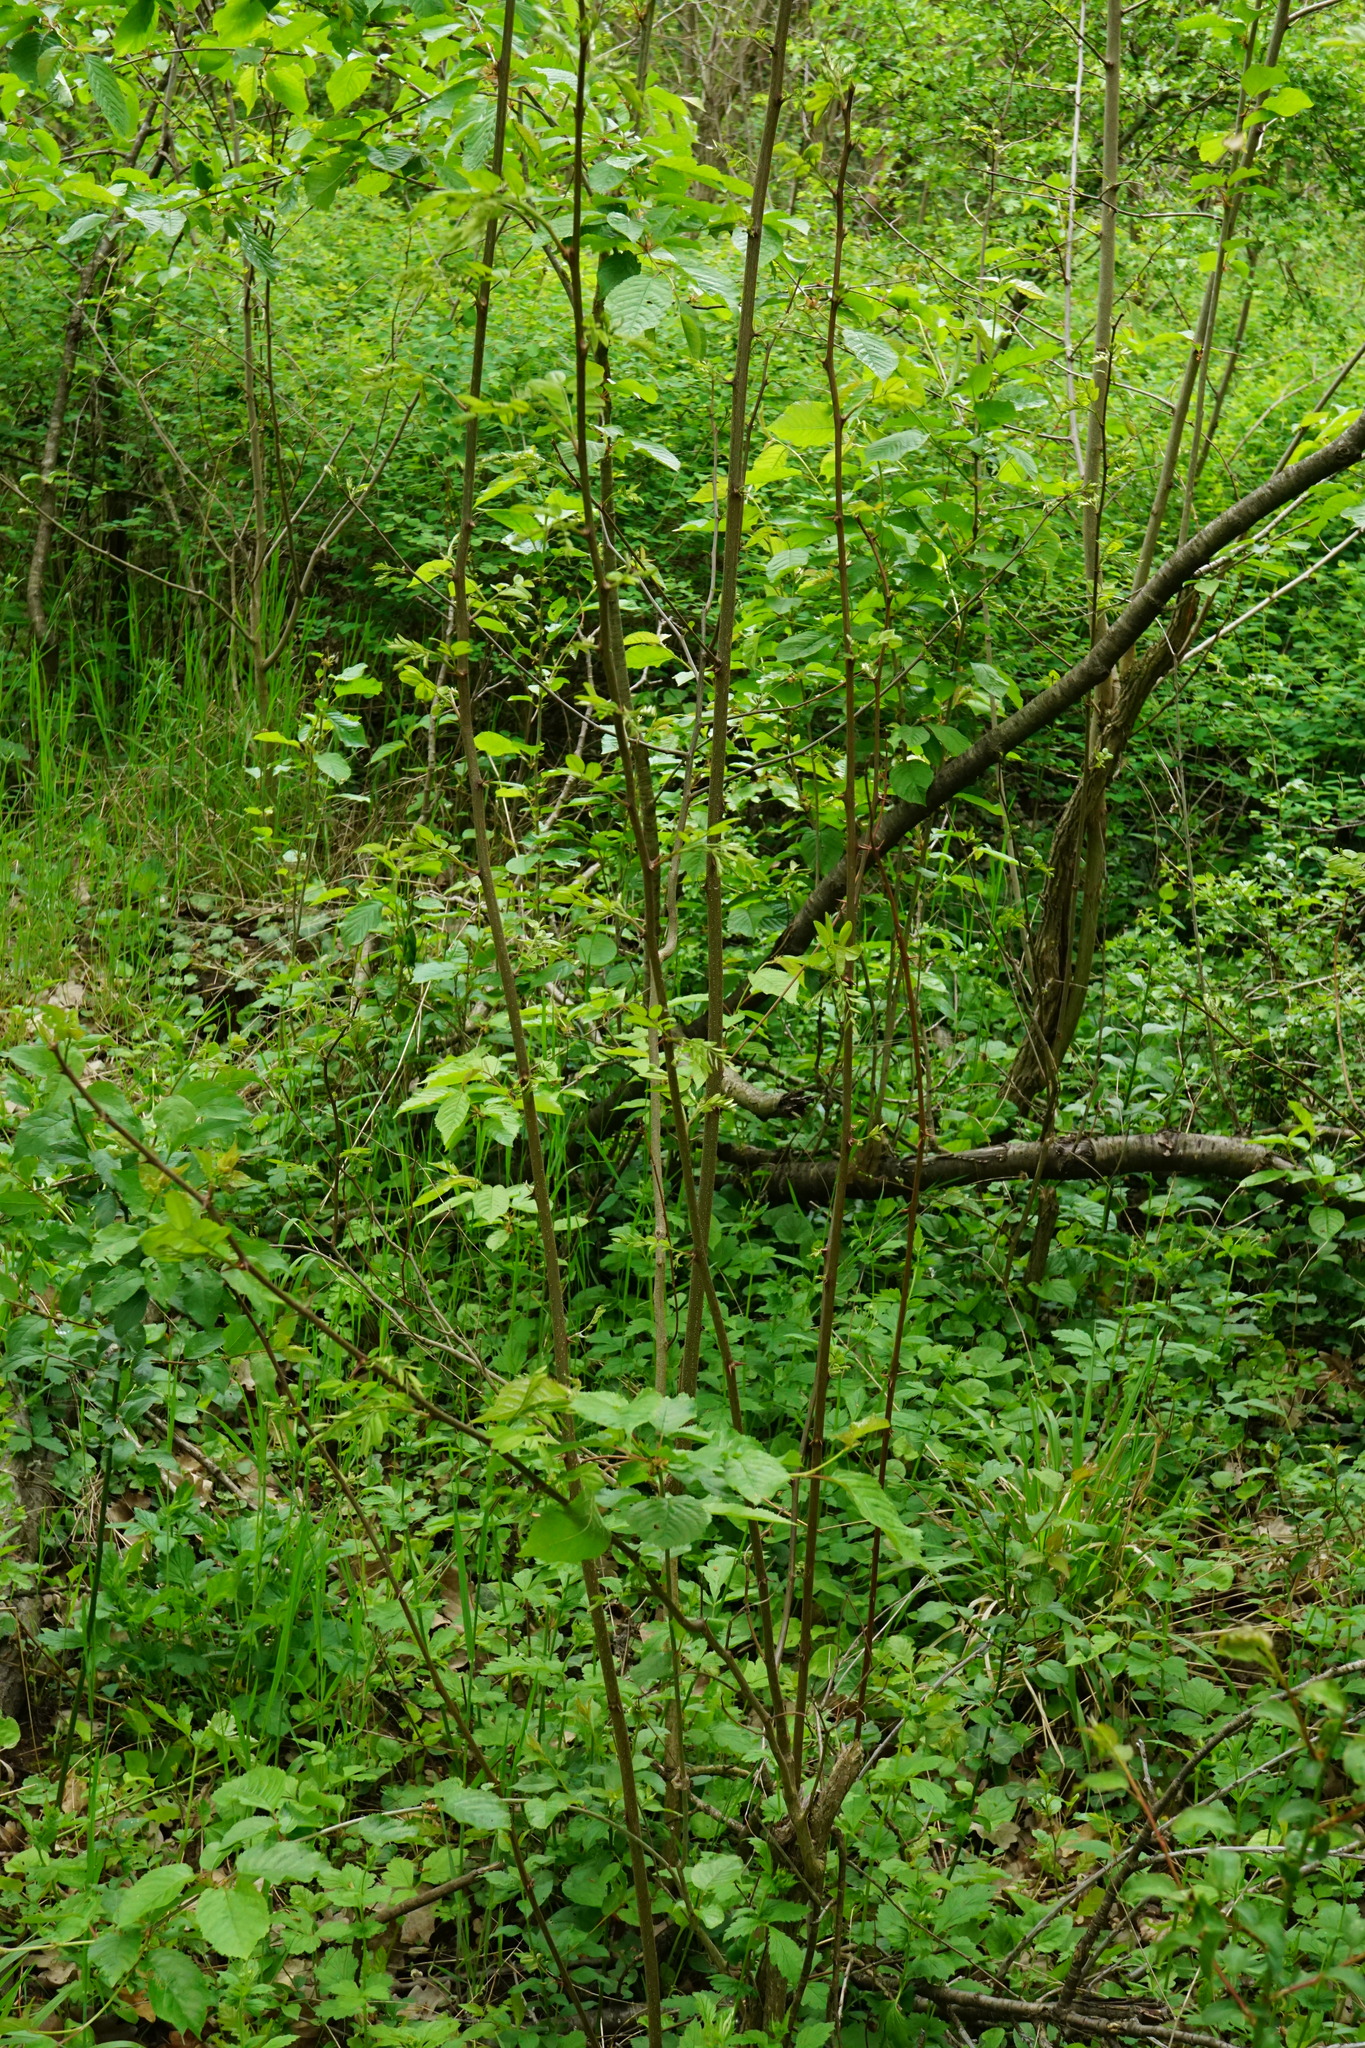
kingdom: Plantae
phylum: Tracheophyta
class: Magnoliopsida
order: Fabales
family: Fabaceae
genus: Robinia
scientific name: Robinia pseudoacacia
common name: Black locust
